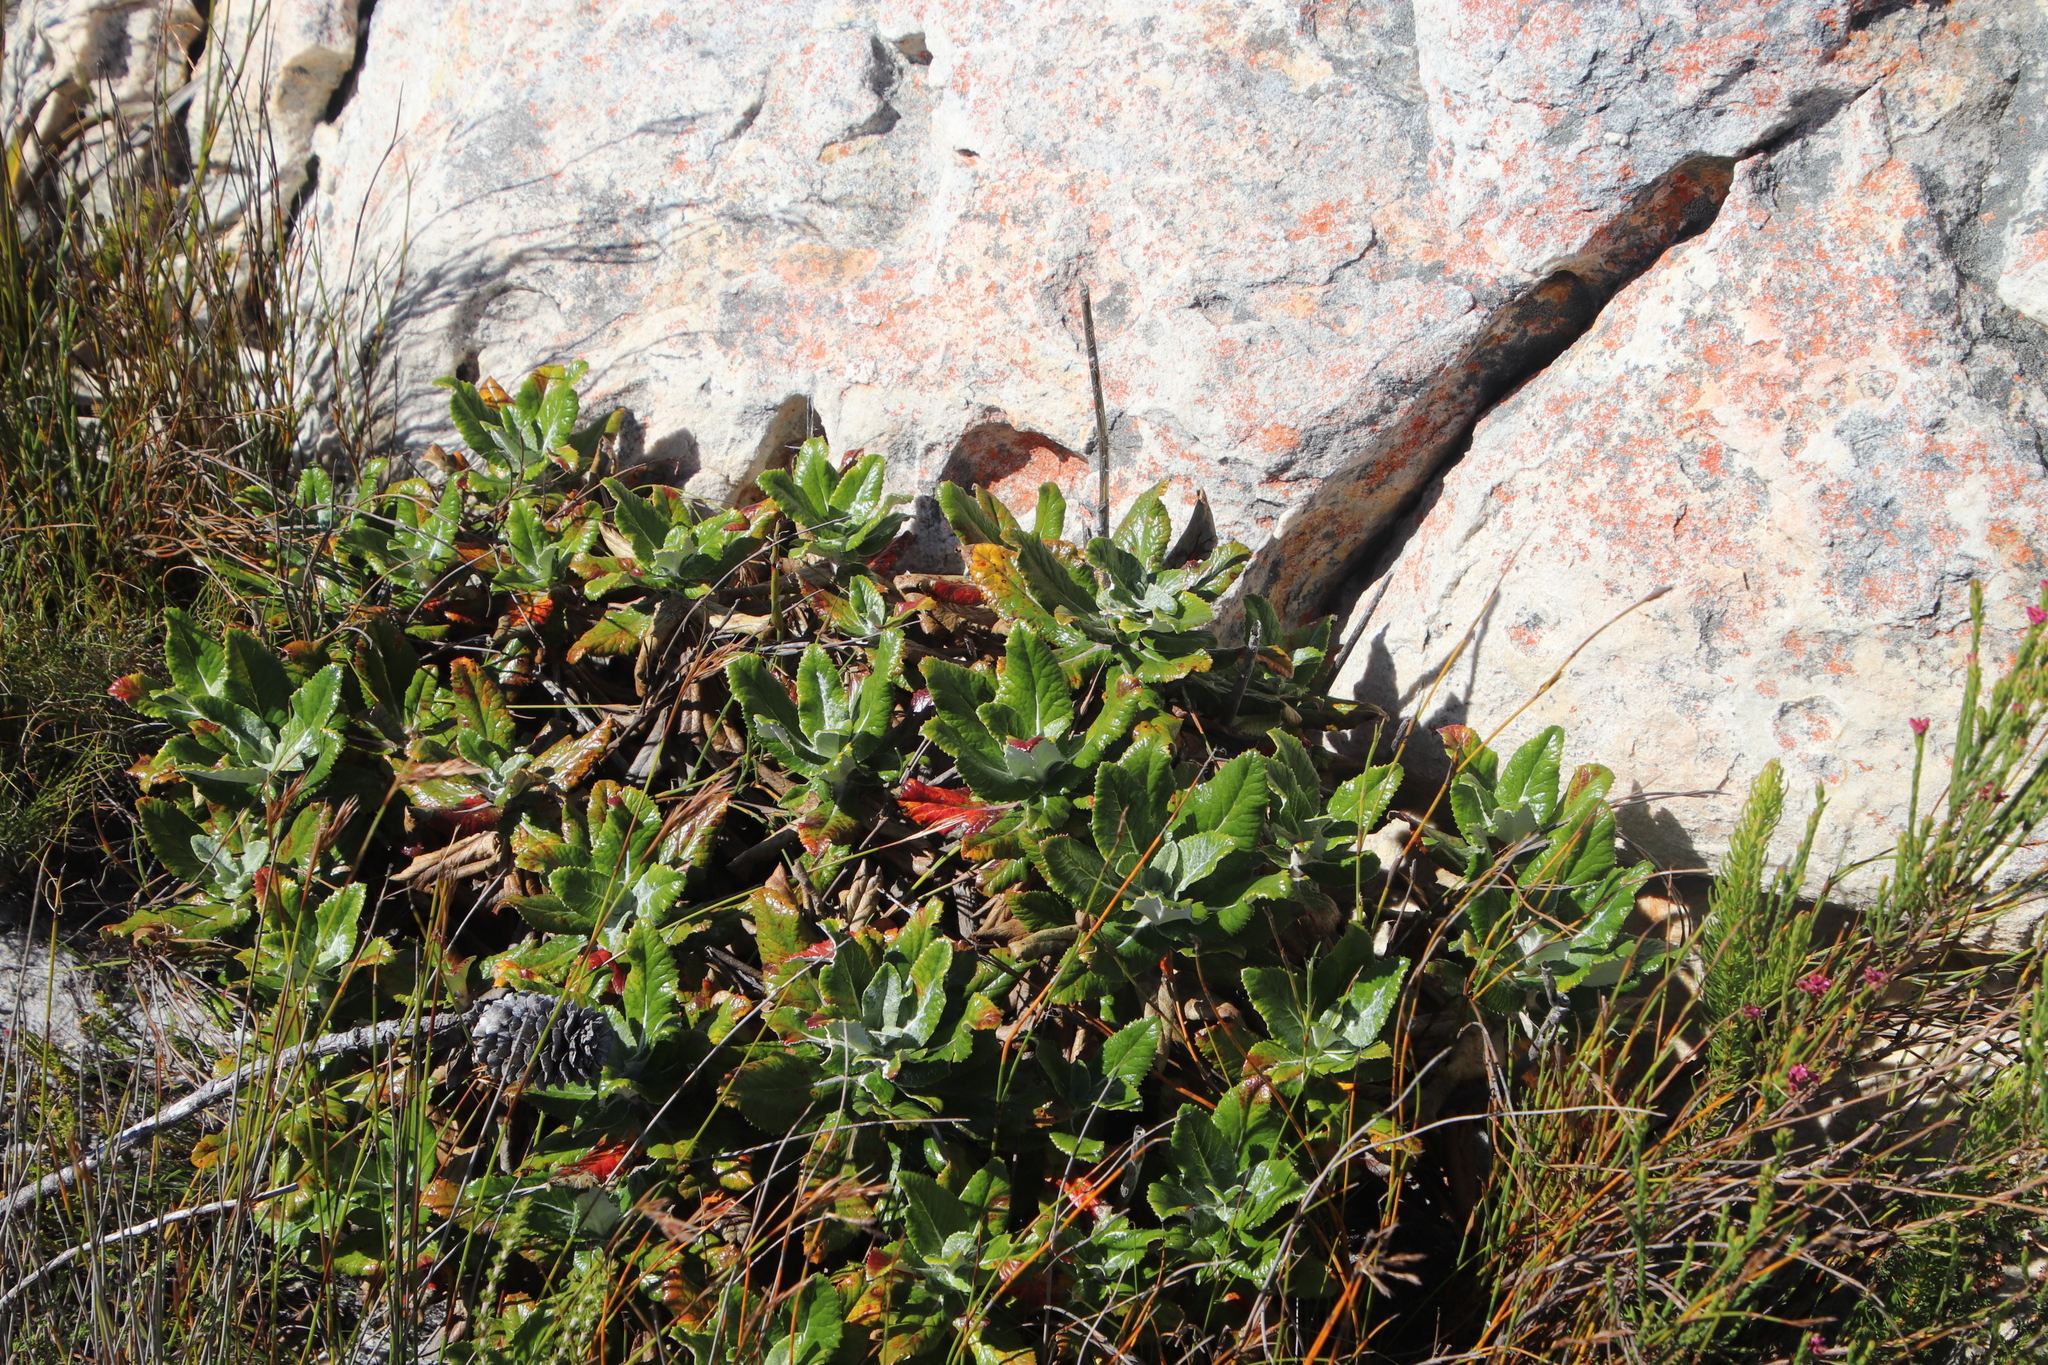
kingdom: Plantae
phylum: Tracheophyta
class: Magnoliopsida
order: Apiales
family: Apiaceae
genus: Hermas
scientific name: Hermas villosa
